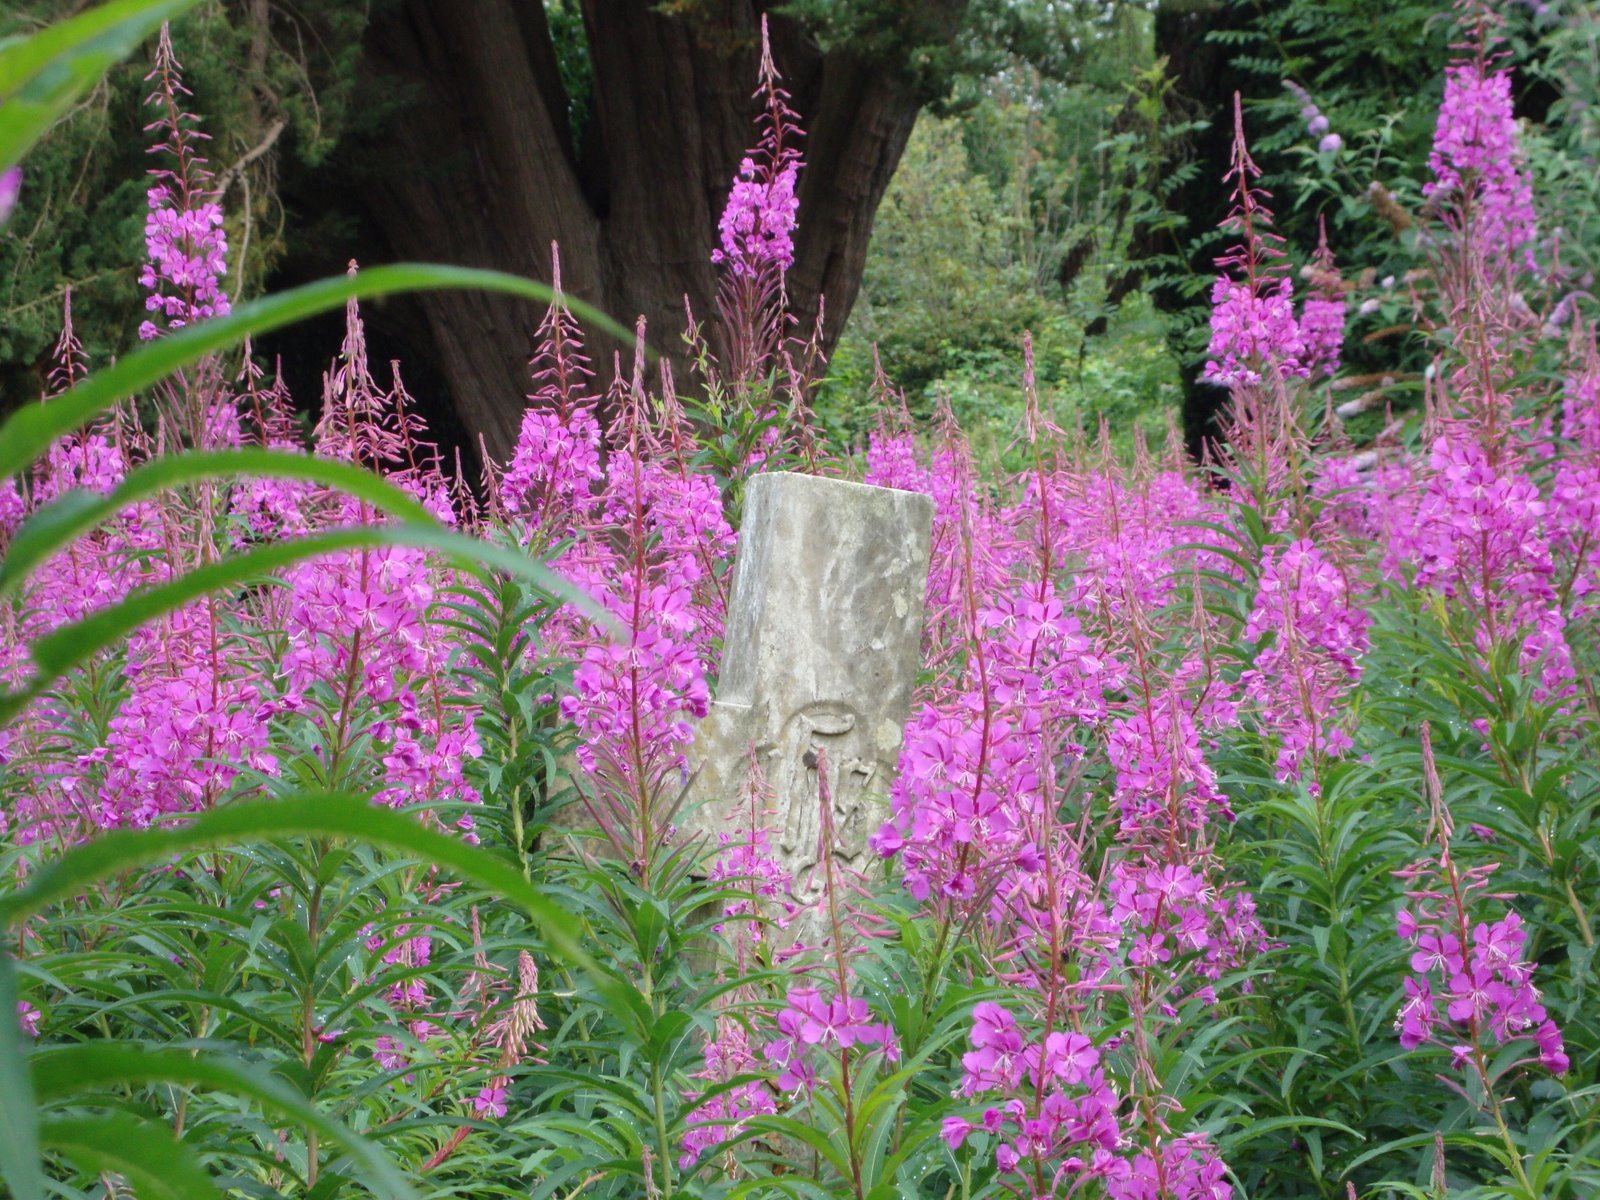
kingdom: Plantae
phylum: Tracheophyta
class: Magnoliopsida
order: Myrtales
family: Onagraceae
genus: Chamaenerion
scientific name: Chamaenerion angustifolium
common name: Fireweed
